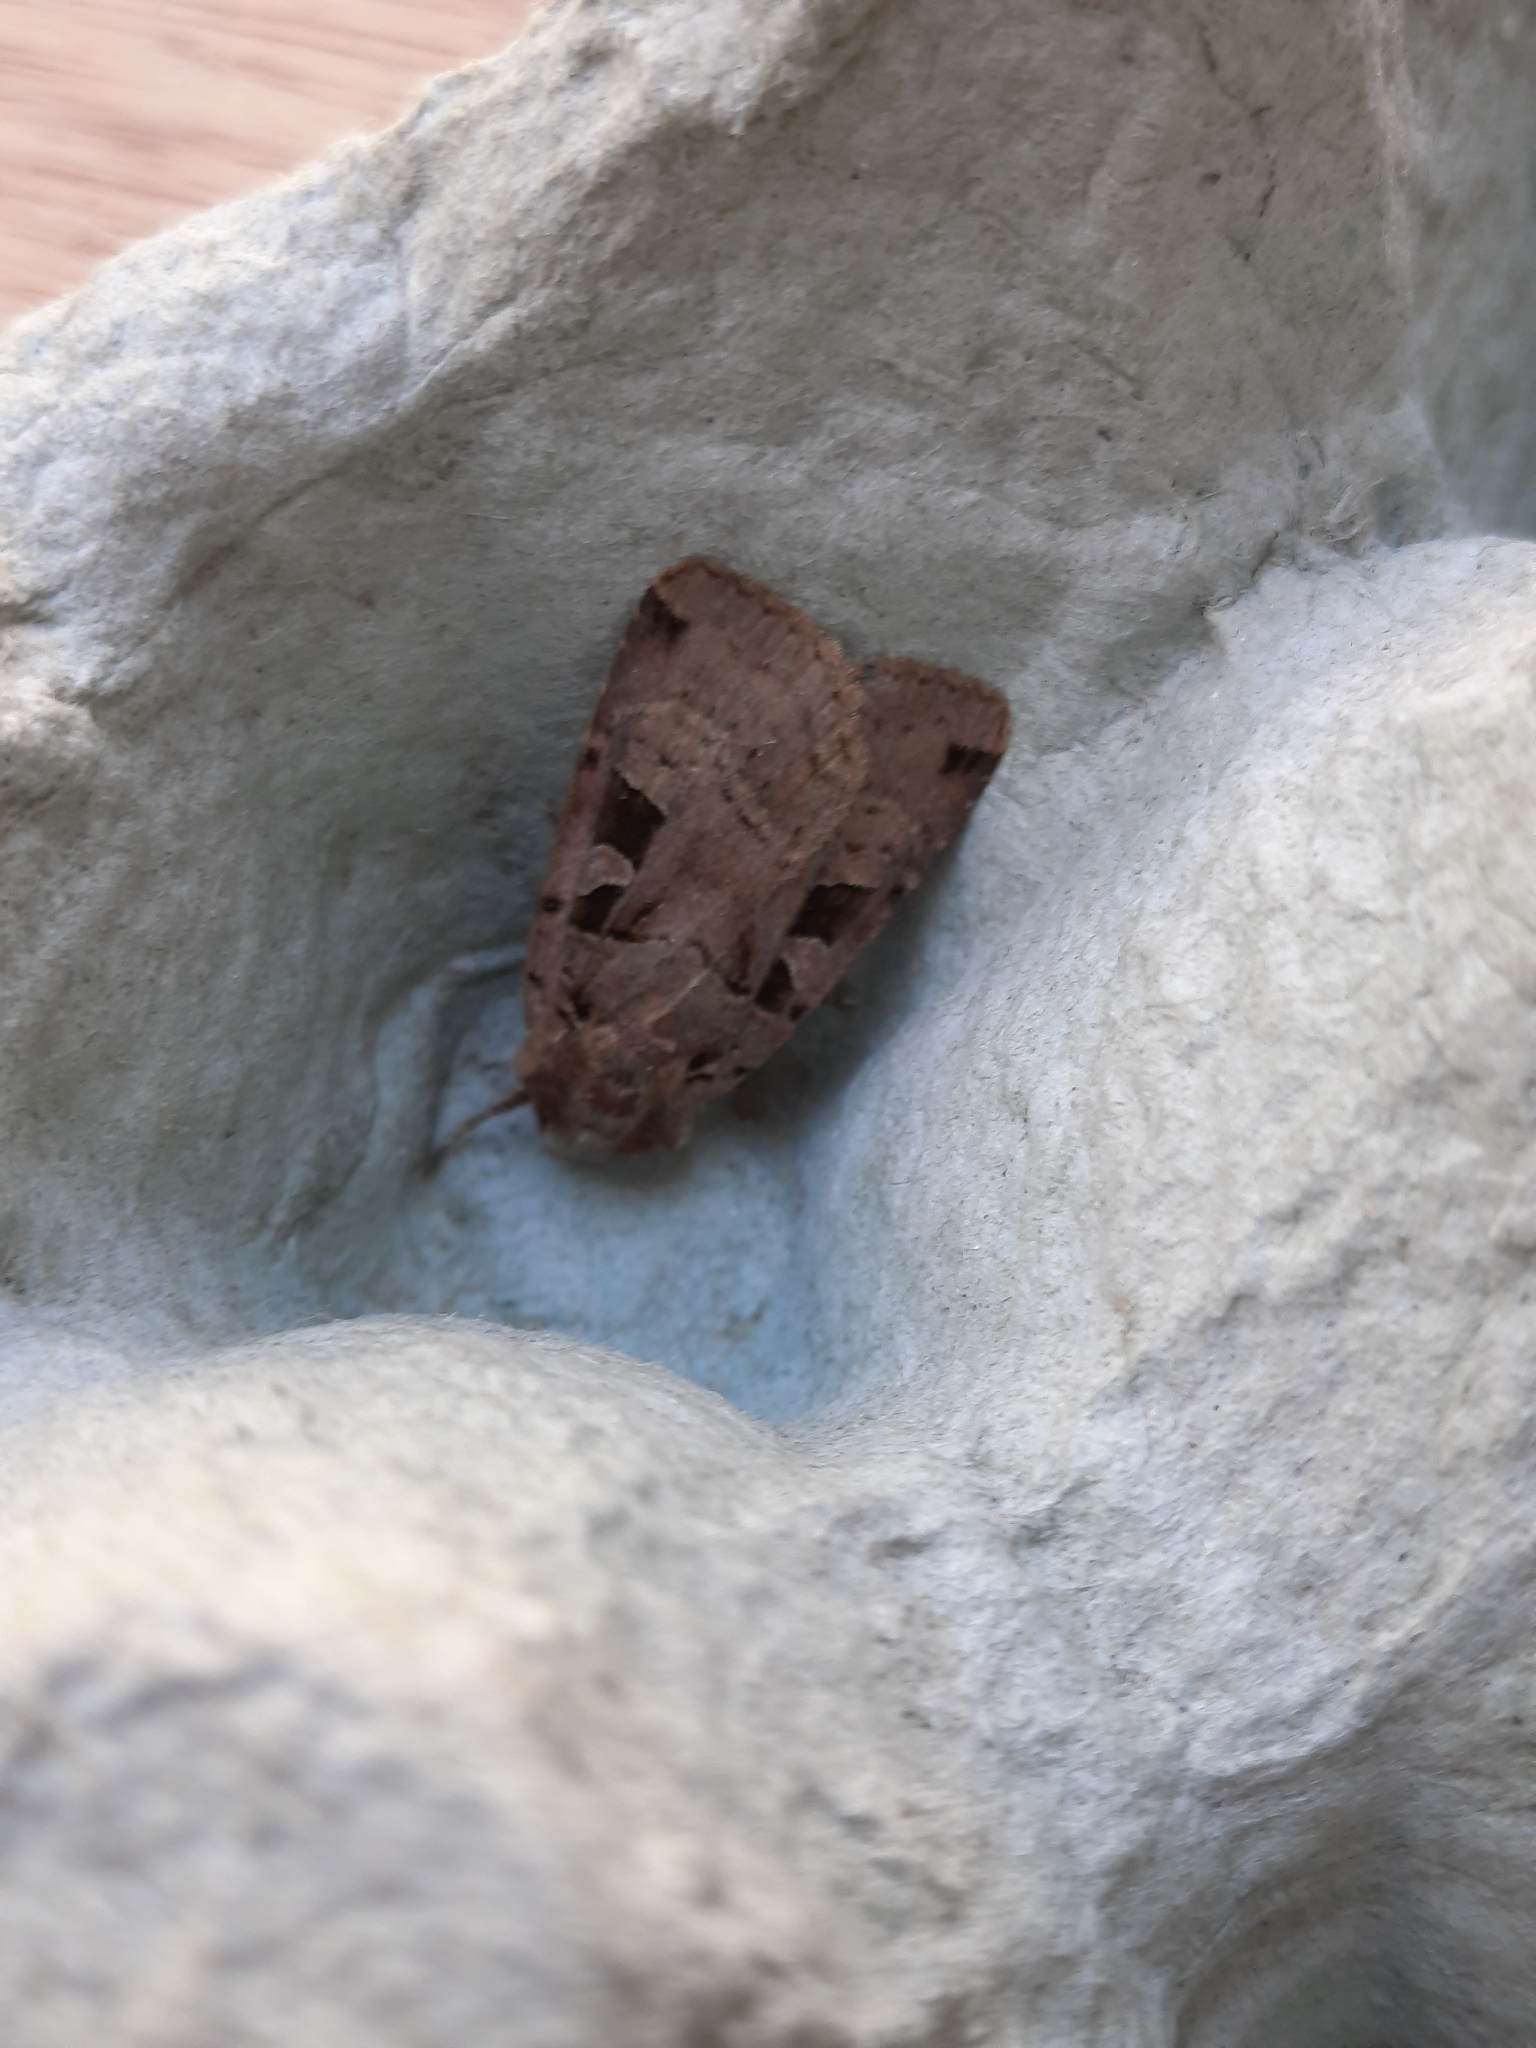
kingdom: Animalia
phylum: Arthropoda
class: Insecta
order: Lepidoptera
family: Noctuidae
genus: Xestia
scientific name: Xestia triangulum
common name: Double square-spot
